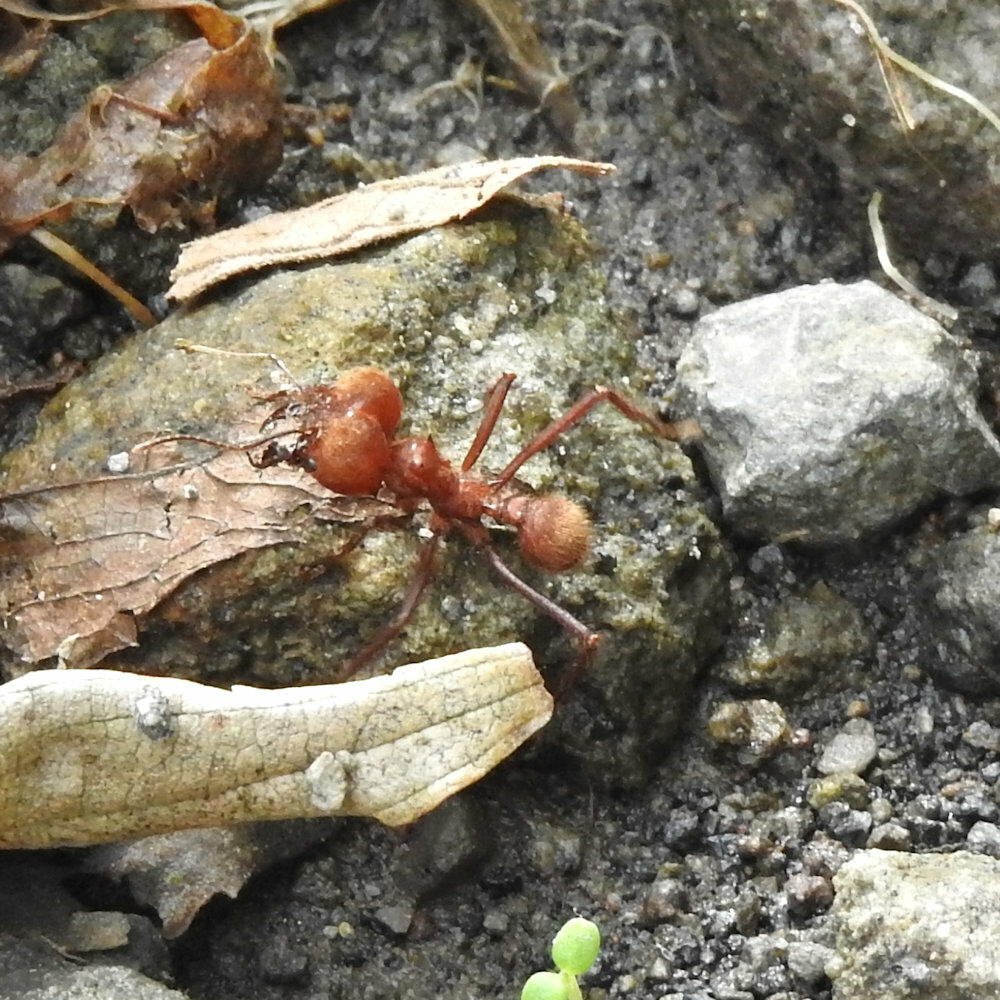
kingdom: Animalia
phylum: Arthropoda
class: Insecta
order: Hymenoptera
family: Formicidae
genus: Atta
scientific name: Atta cephalotes
